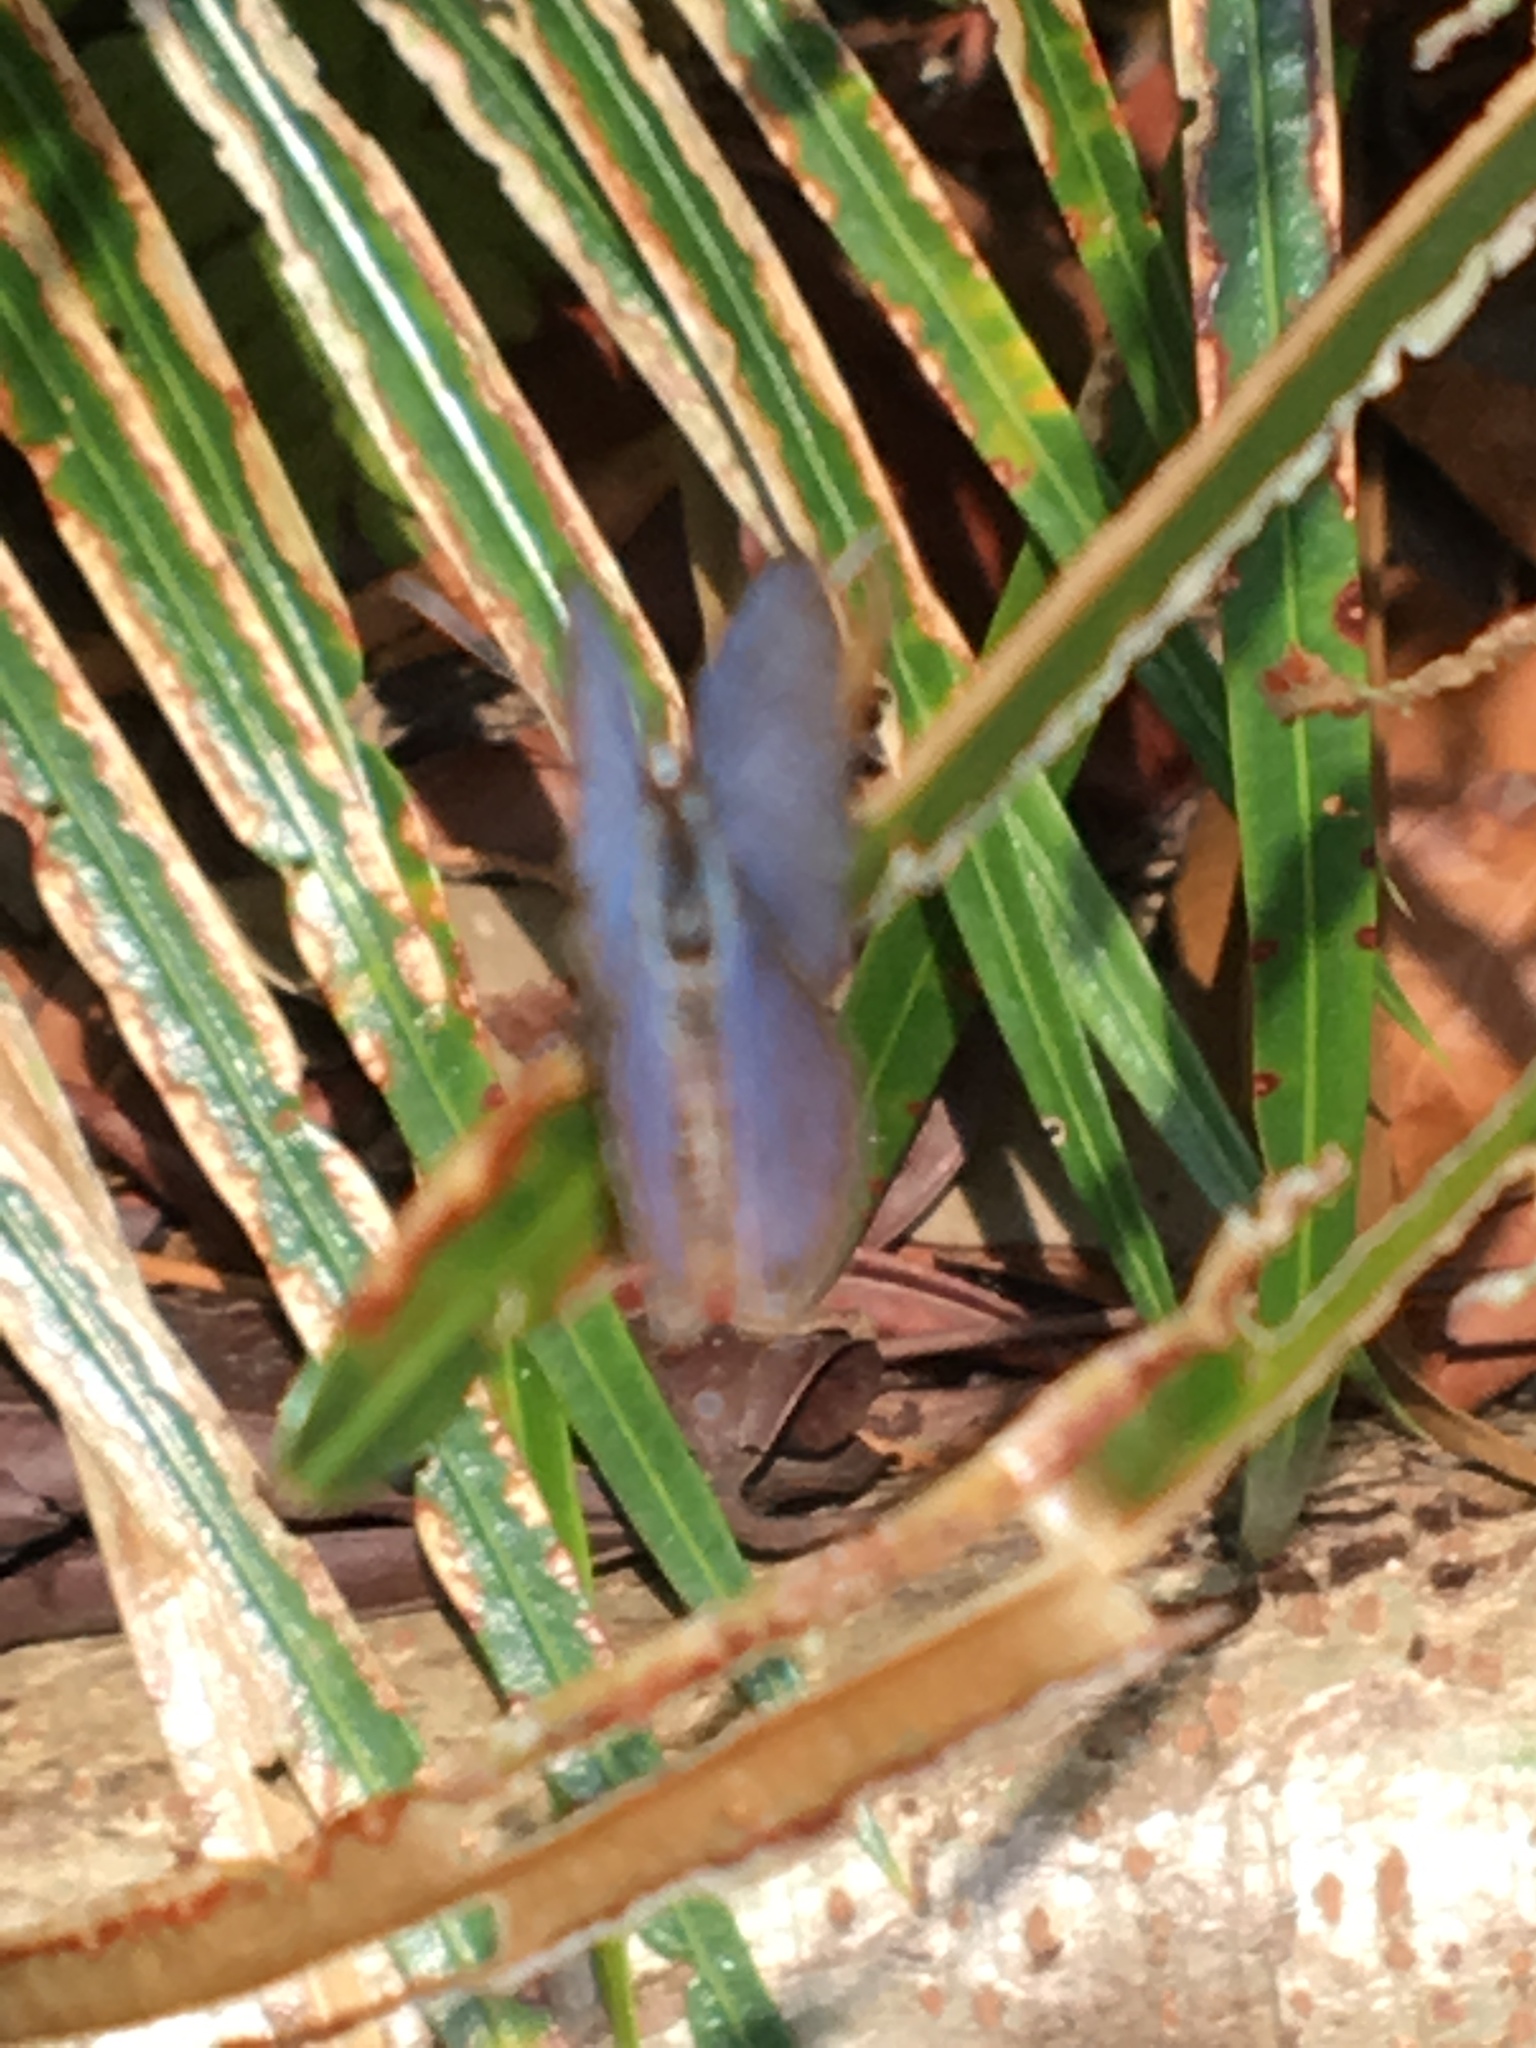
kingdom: Animalia
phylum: Arthropoda
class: Insecta
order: Lepidoptera
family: Lycaenidae
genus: Luthrodes
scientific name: Luthrodes pandava
